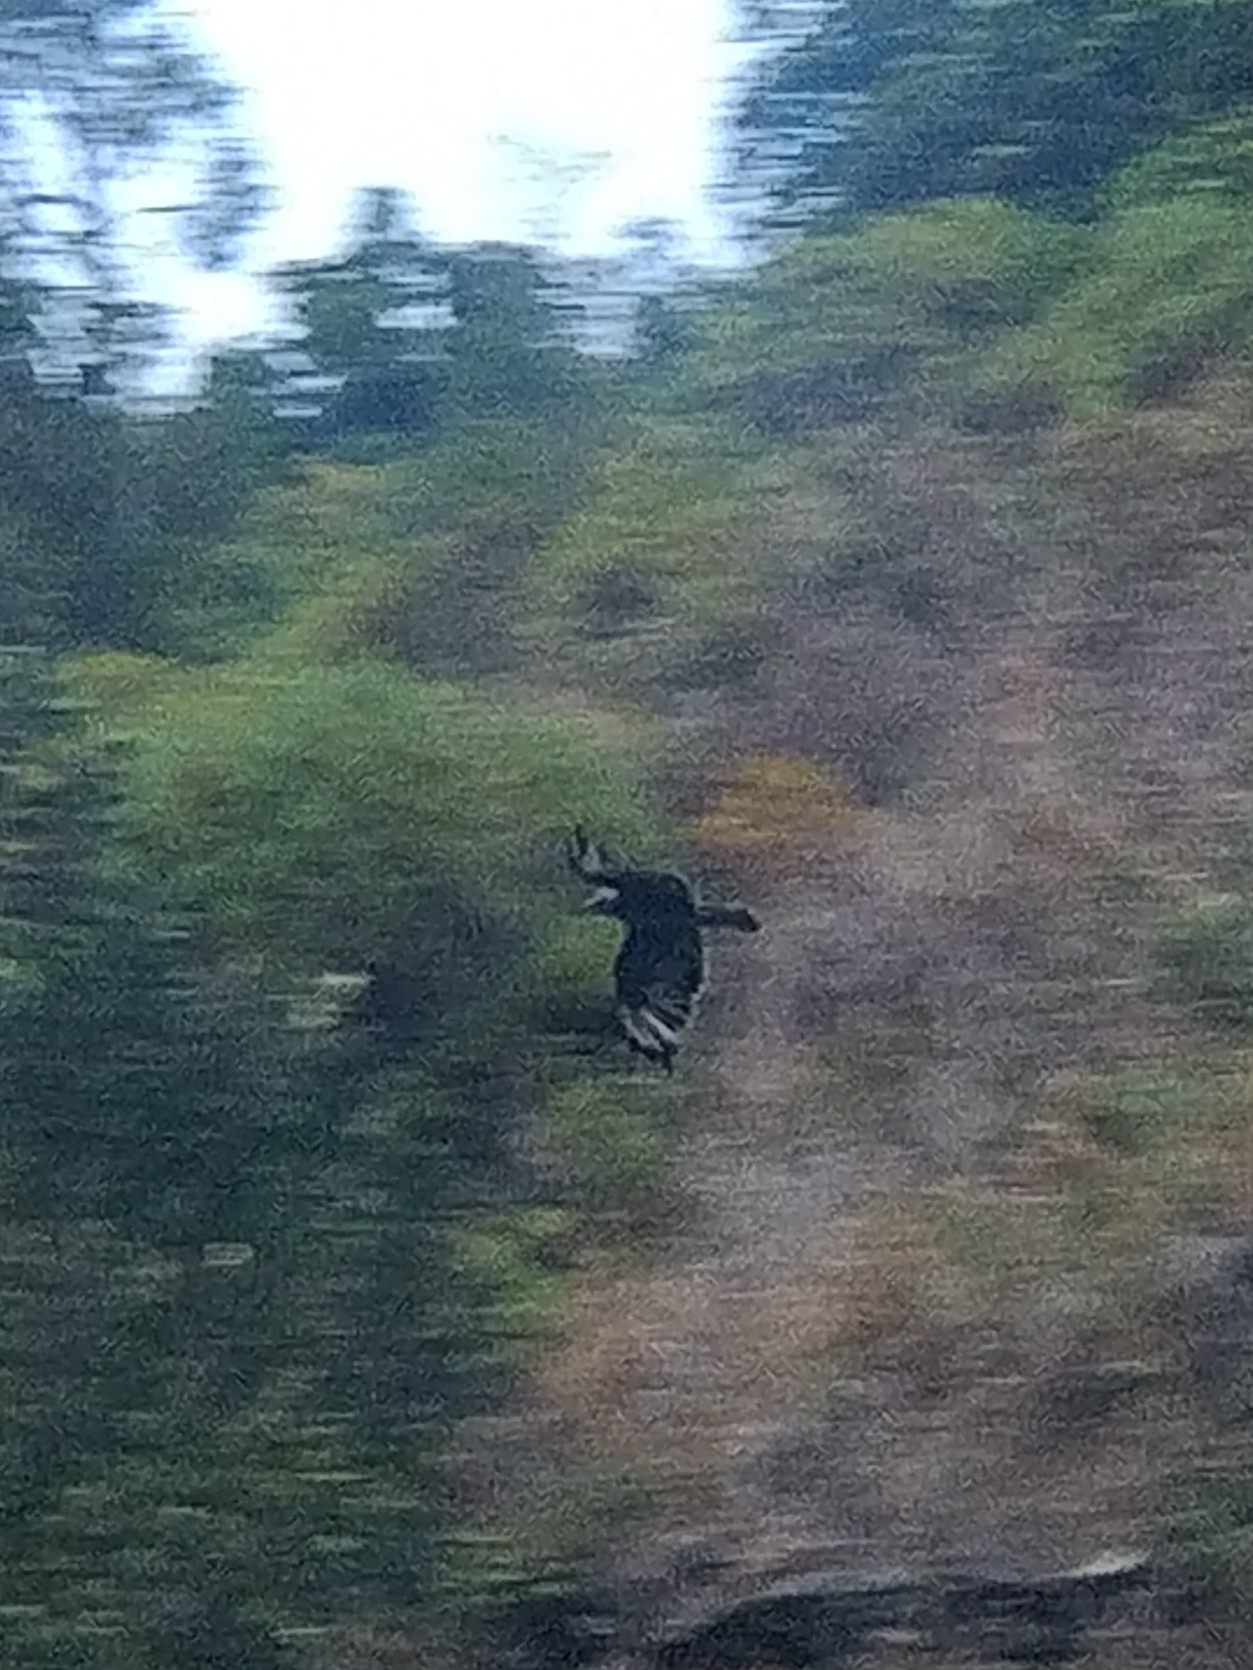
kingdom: Animalia
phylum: Chordata
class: Aves
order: Accipitriformes
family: Accipitridae
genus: Buteo
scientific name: Buteo buteo
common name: Common buzzard
